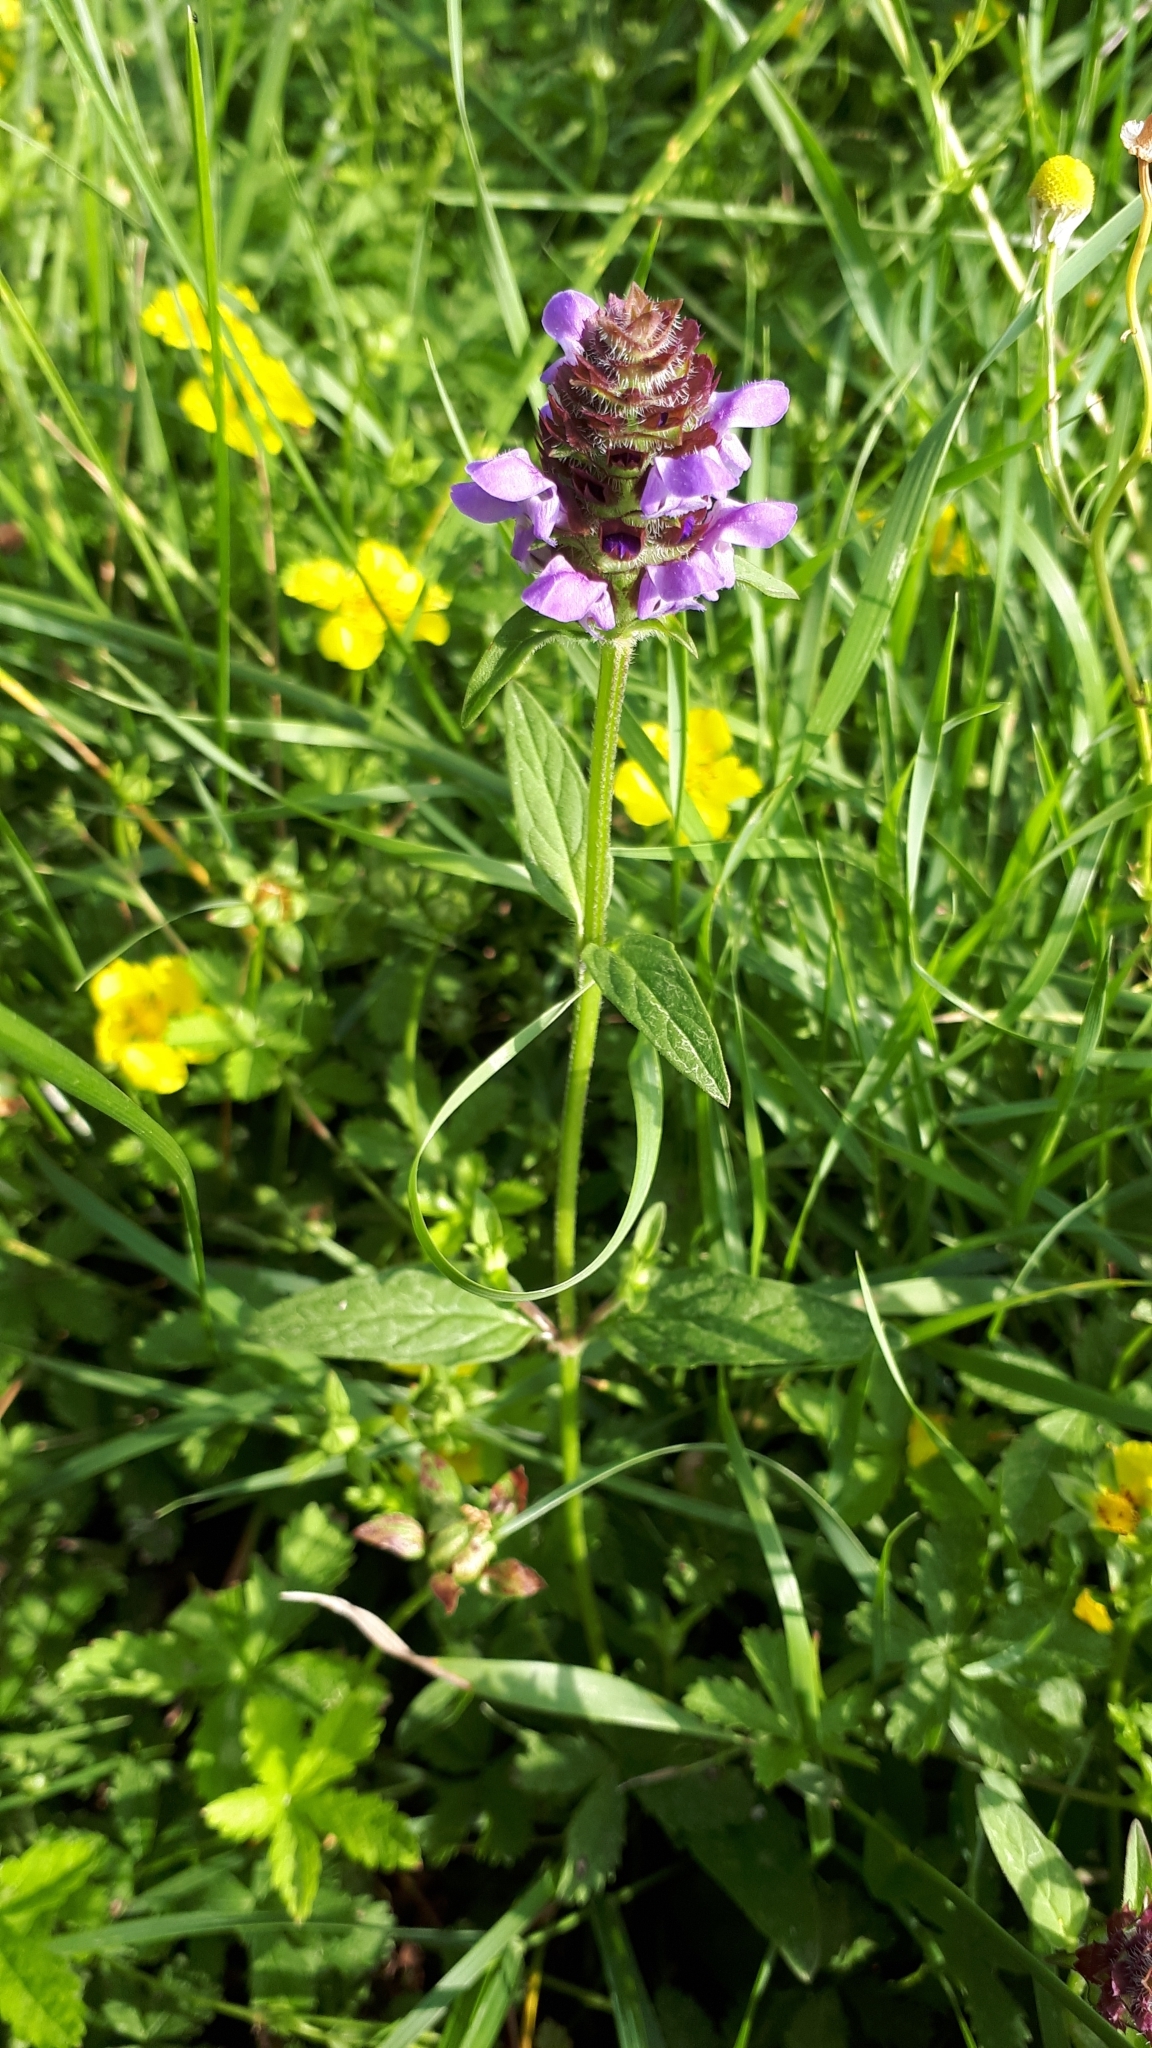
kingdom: Plantae
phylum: Tracheophyta
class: Magnoliopsida
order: Lamiales
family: Lamiaceae
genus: Prunella
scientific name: Prunella vulgaris
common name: Heal-all
